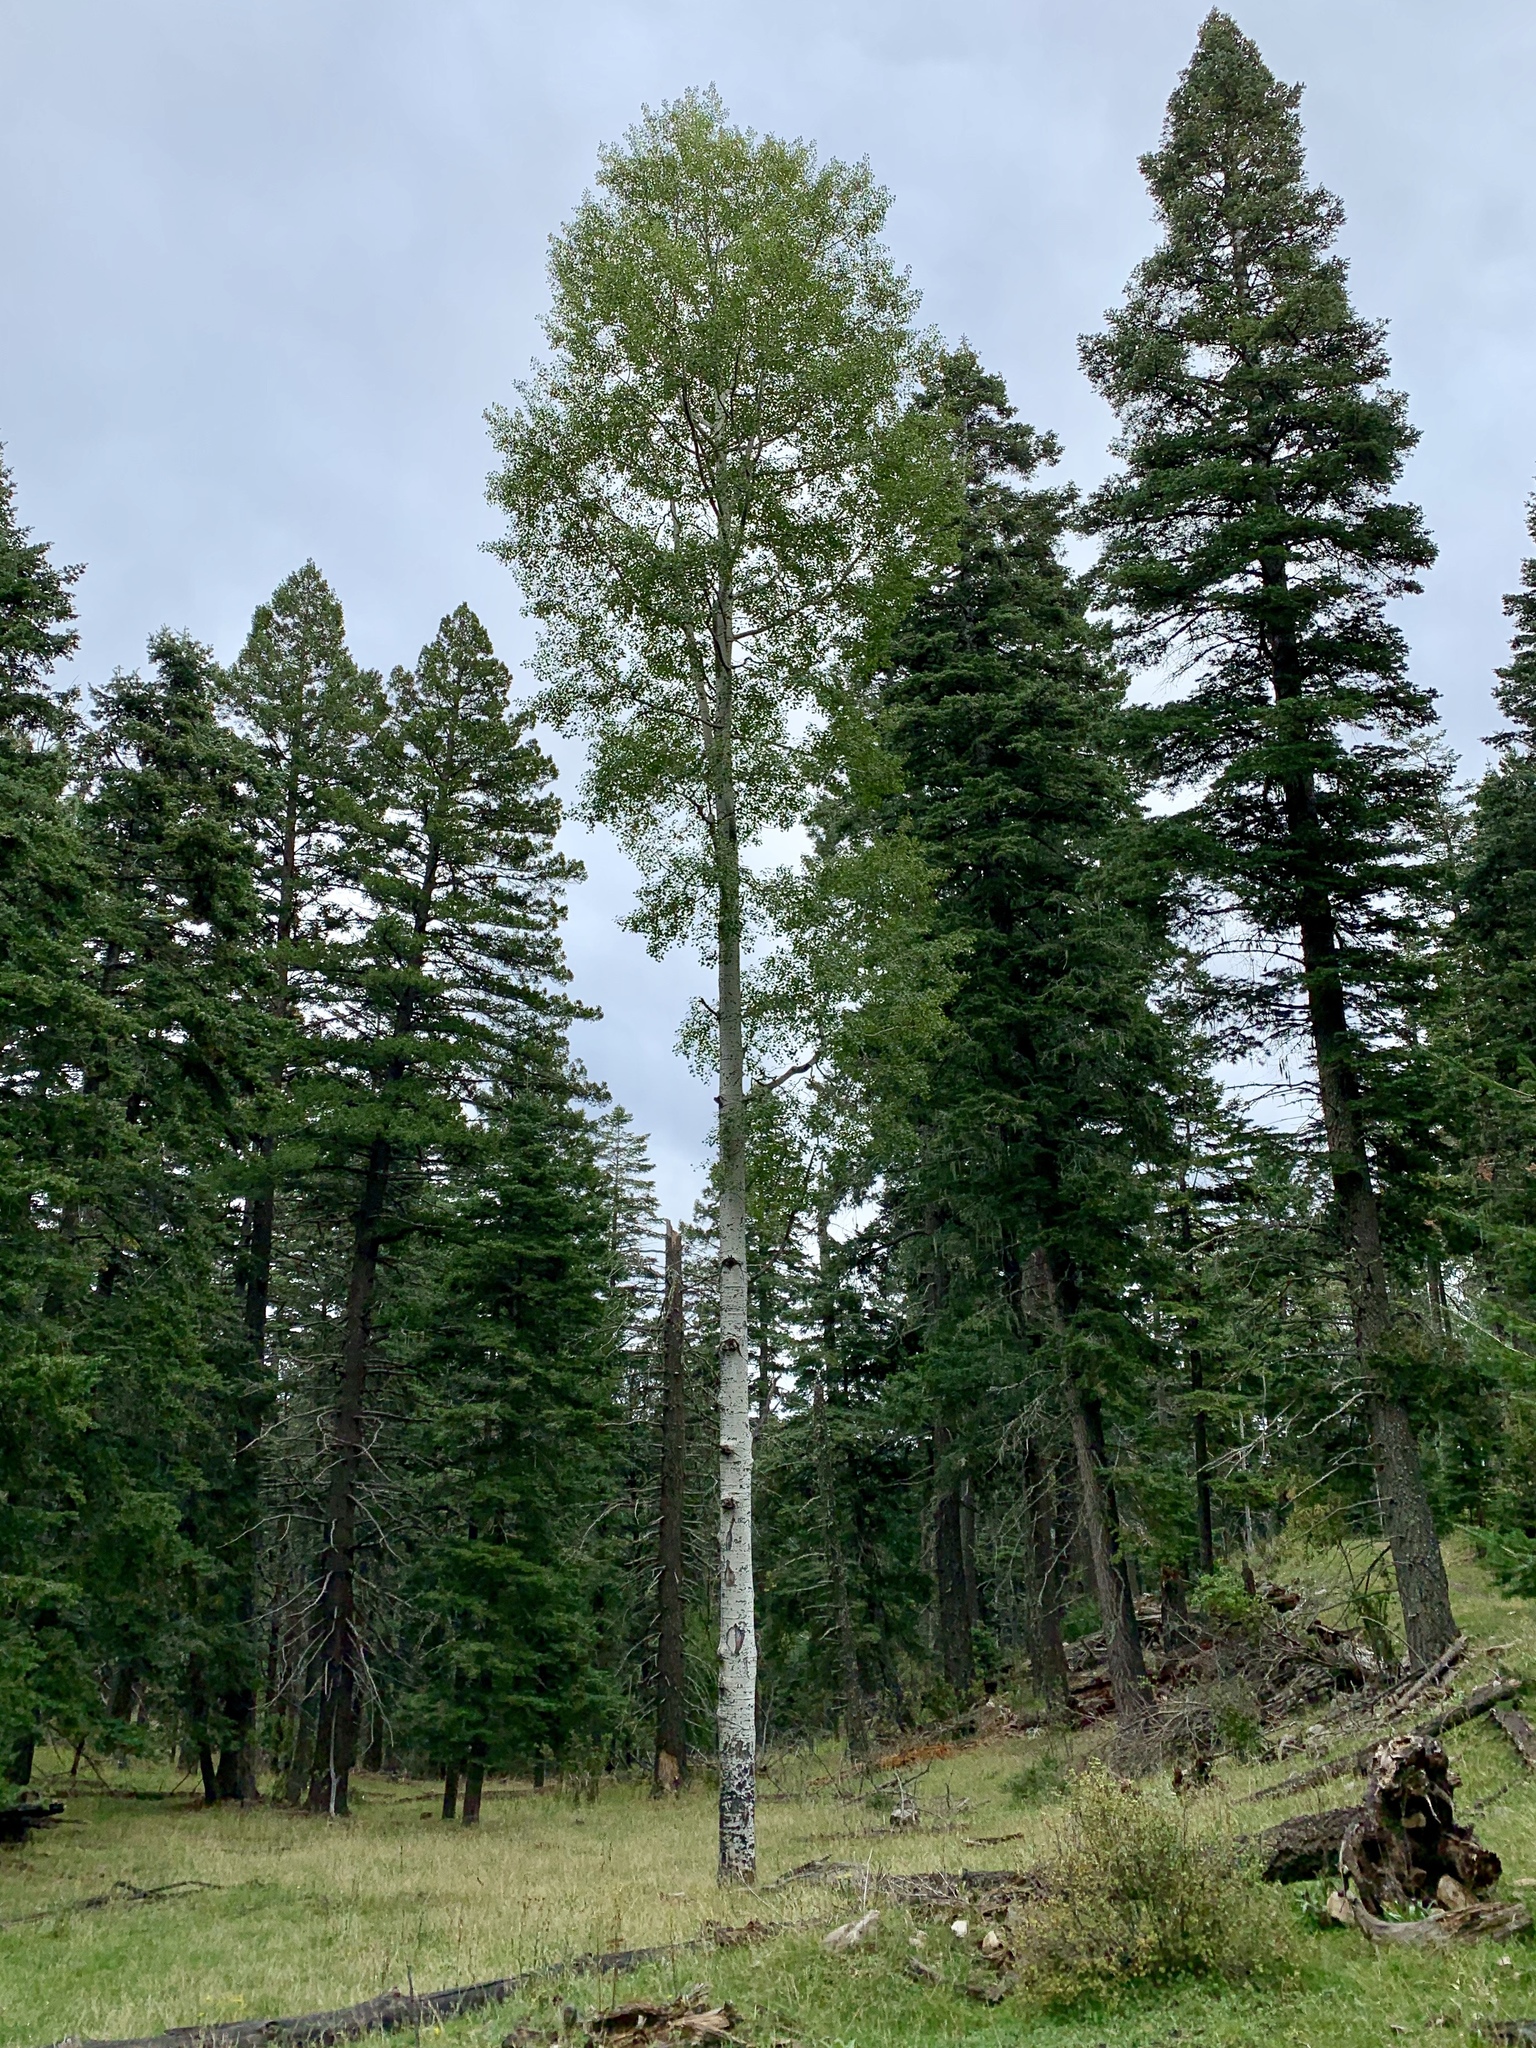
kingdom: Plantae
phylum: Tracheophyta
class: Magnoliopsida
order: Malpighiales
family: Salicaceae
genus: Populus
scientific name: Populus tremuloides
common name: Quaking aspen
